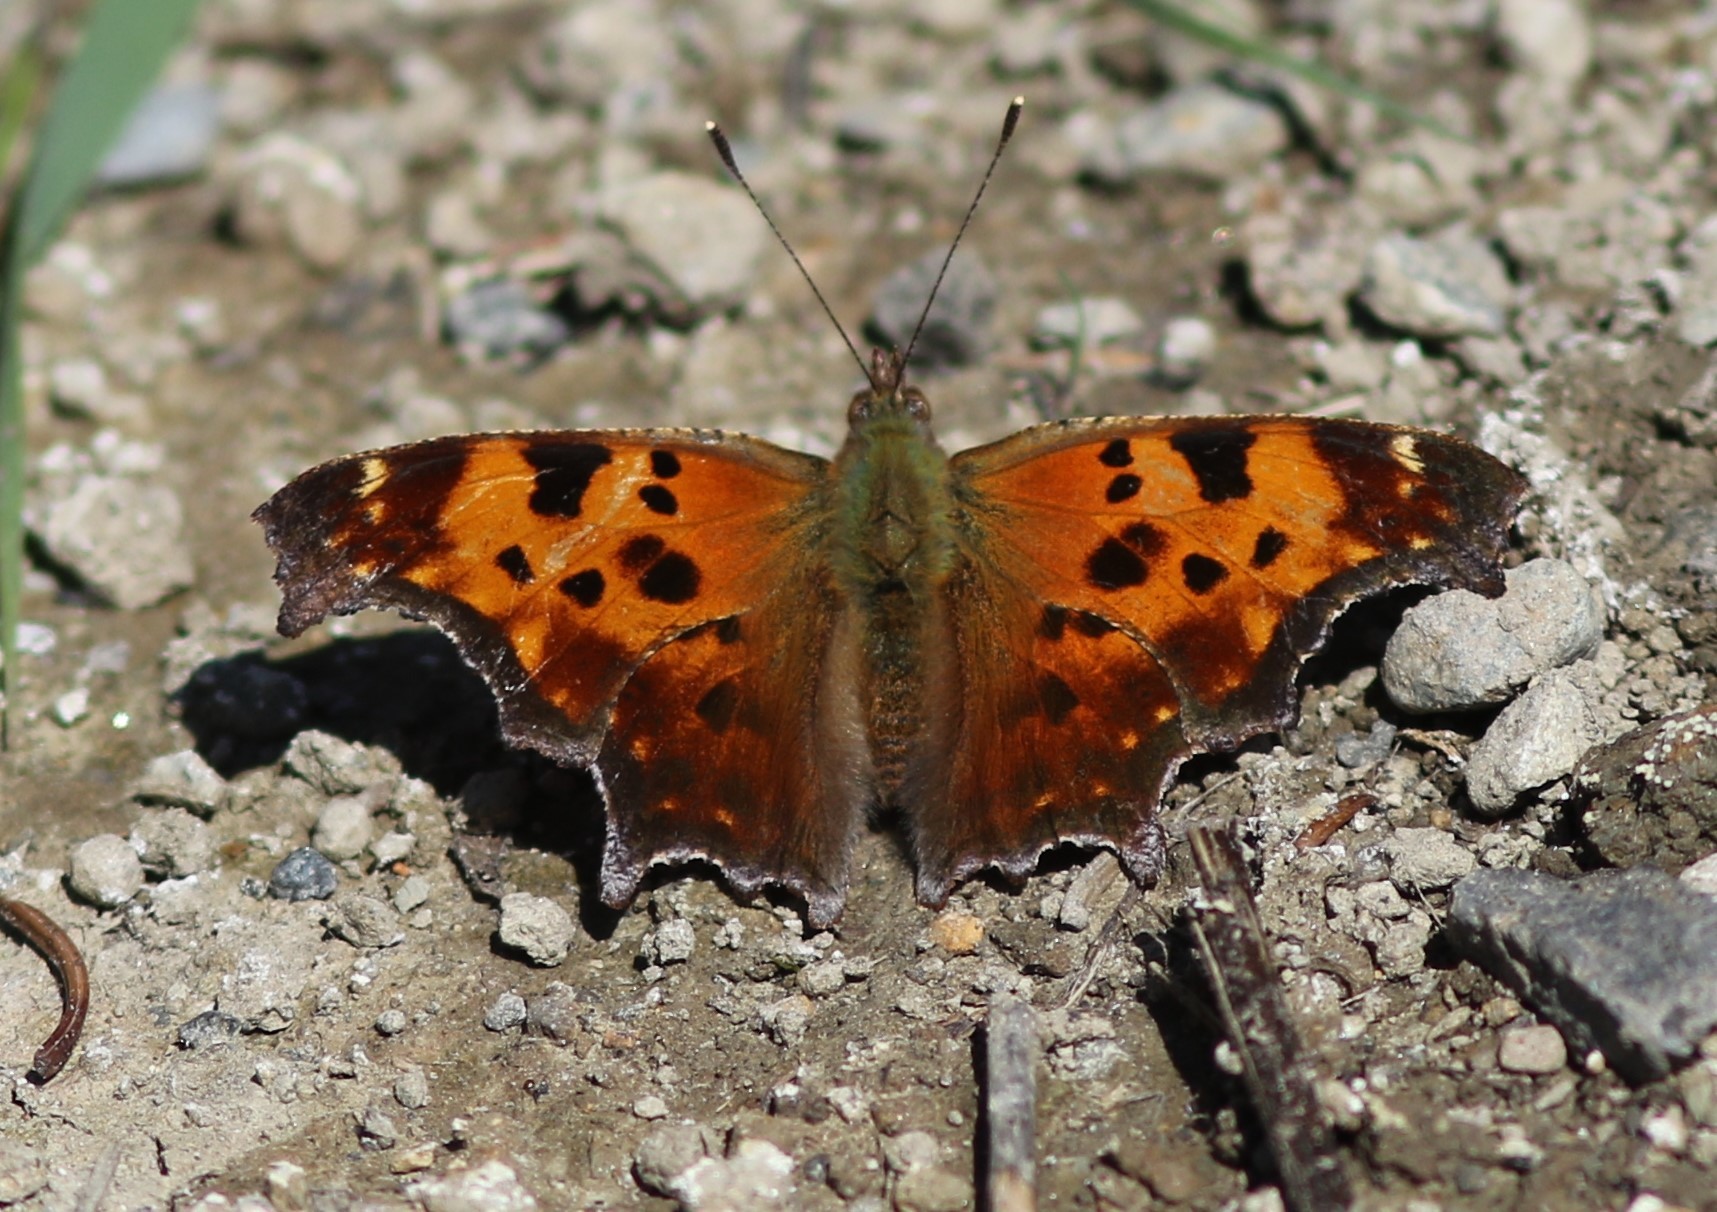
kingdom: Animalia
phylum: Arthropoda
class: Insecta
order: Lepidoptera
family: Nymphalidae
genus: Polygonia
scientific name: Polygonia comma
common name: Eastern comma
